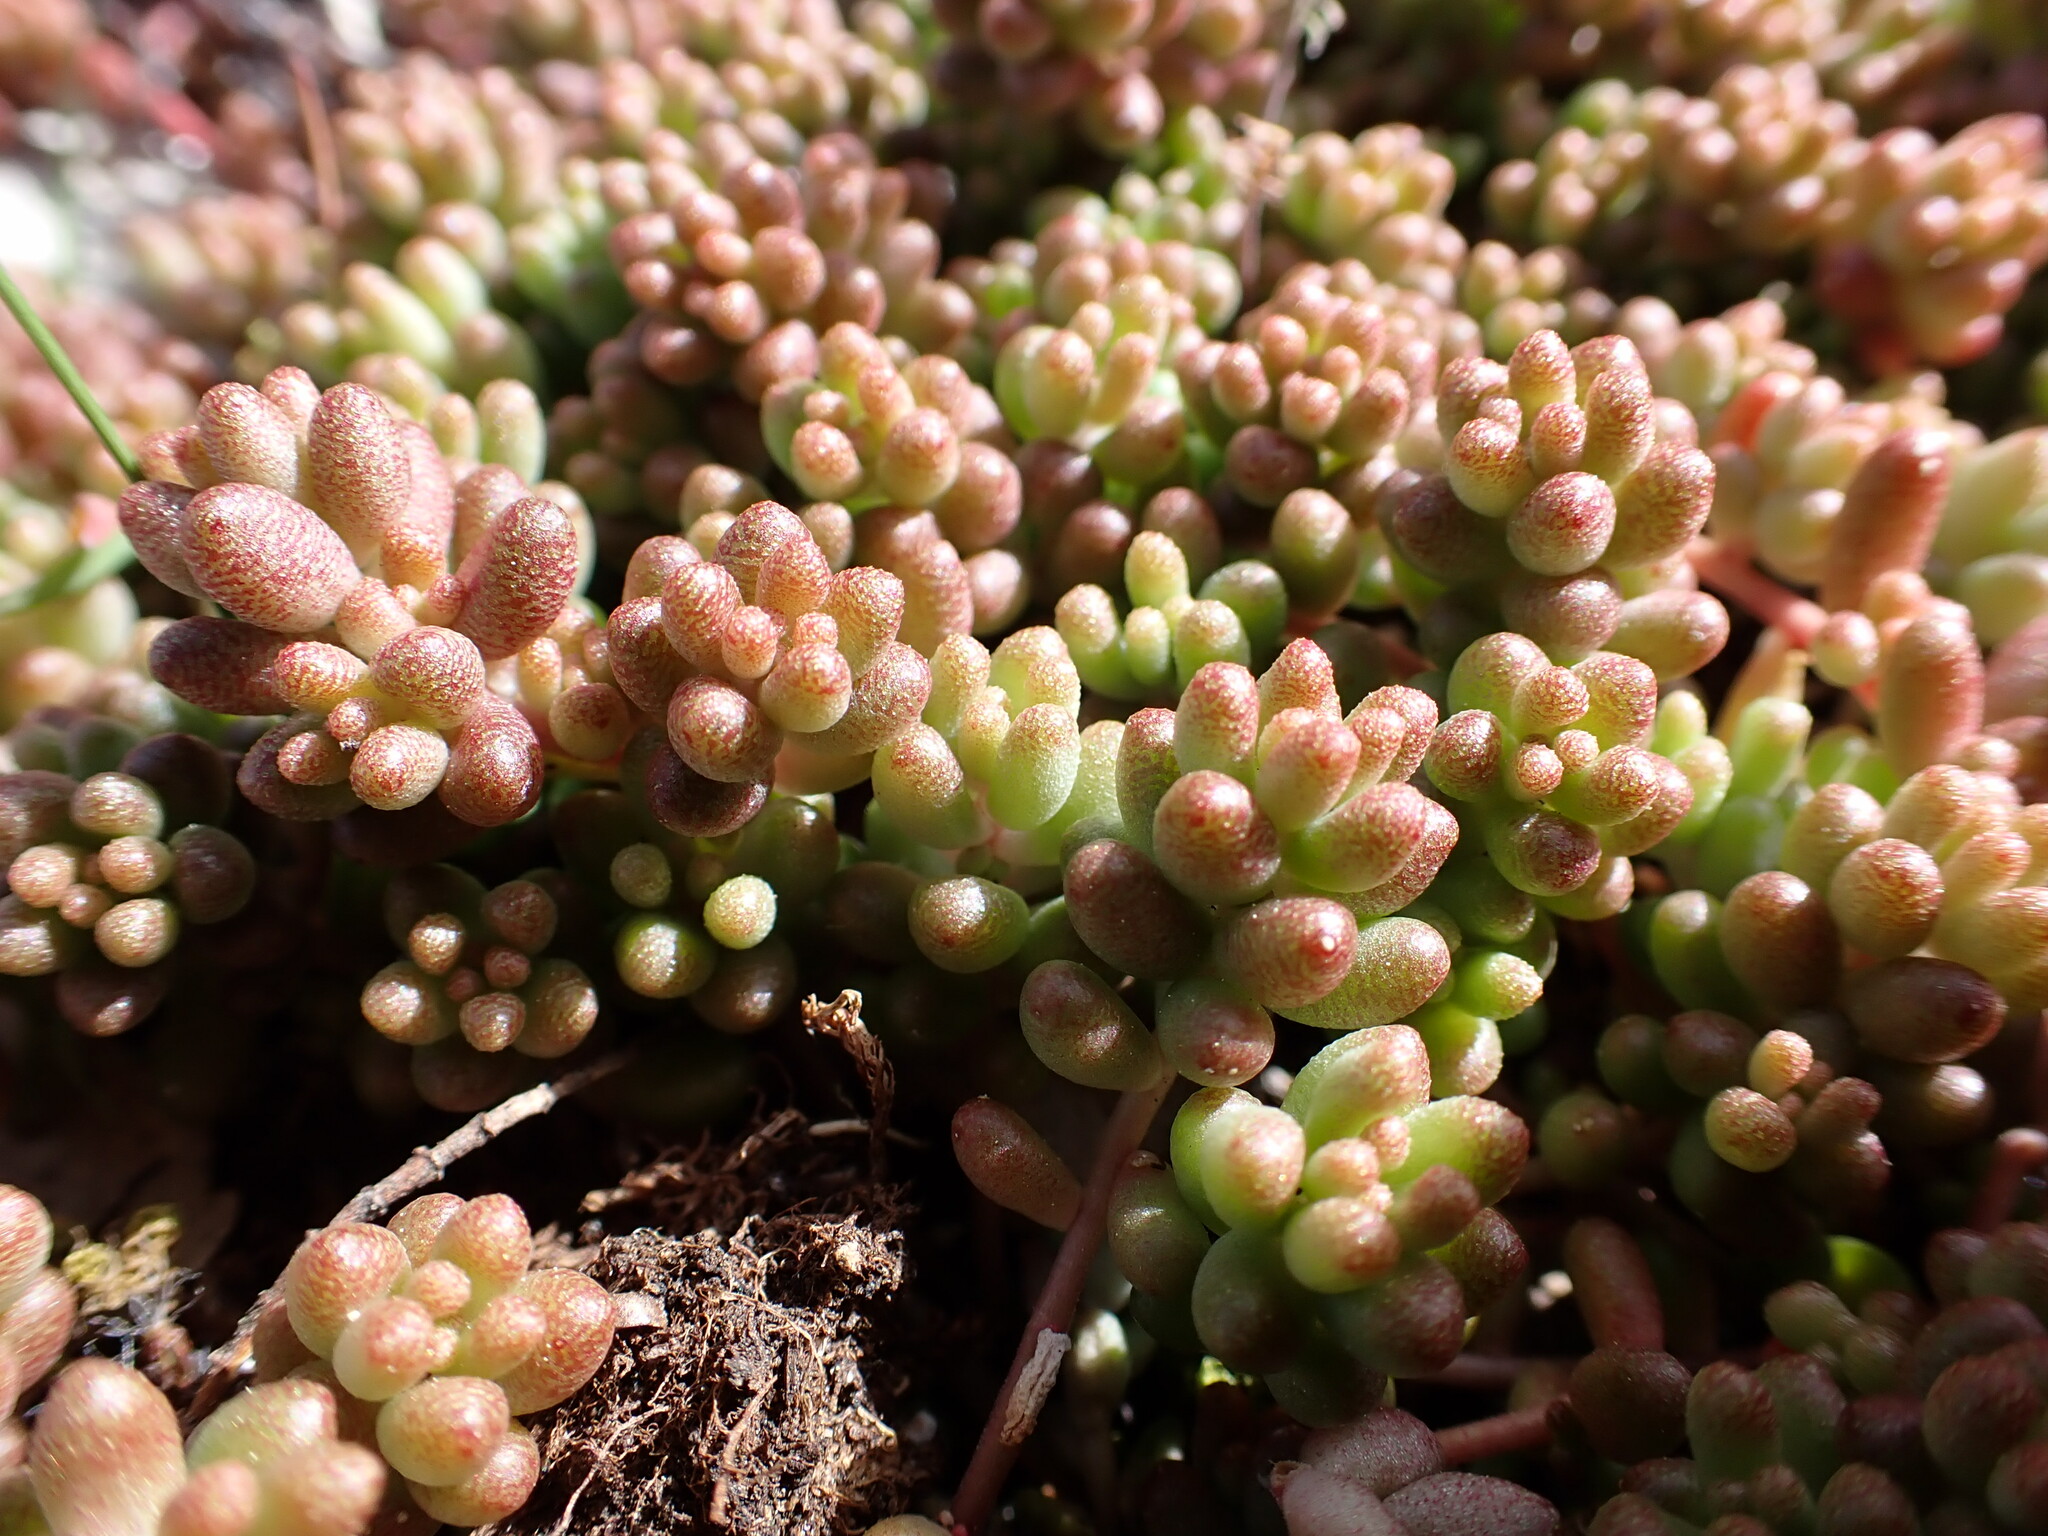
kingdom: Plantae
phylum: Tracheophyta
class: Magnoliopsida
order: Saxifragales
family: Crassulaceae
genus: Sedum
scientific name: Sedum album
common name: White stonecrop
